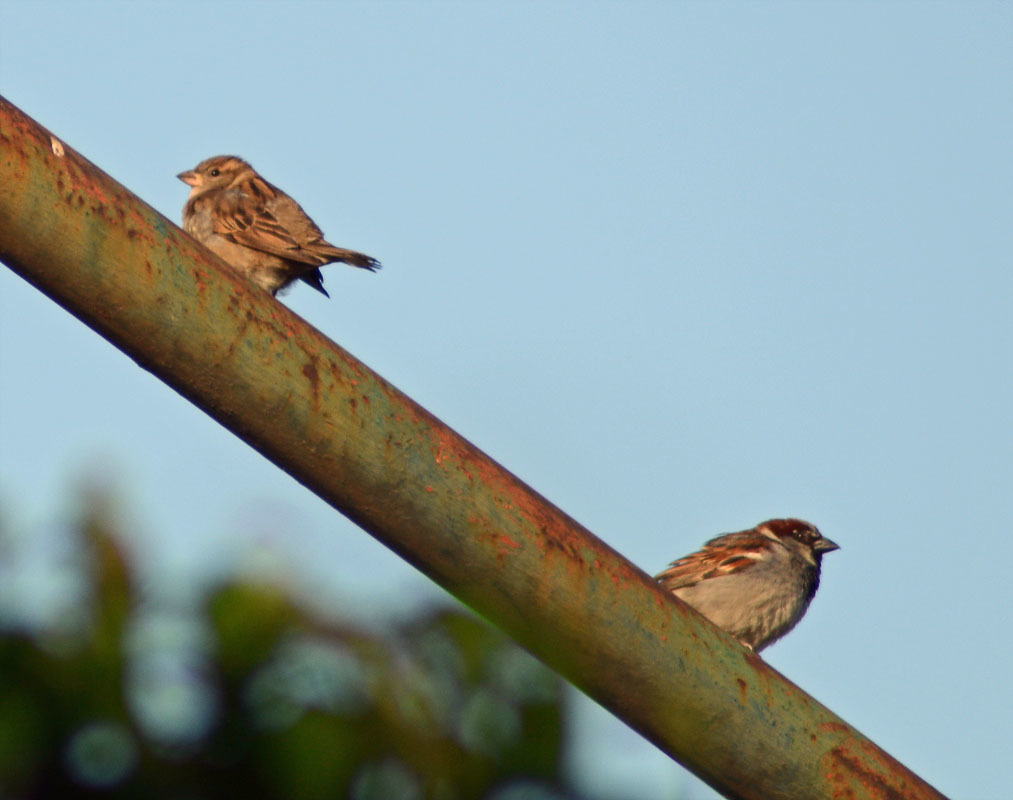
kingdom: Animalia
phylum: Chordata
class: Aves
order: Passeriformes
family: Passeridae
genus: Passer
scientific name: Passer domesticus
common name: House sparrow
